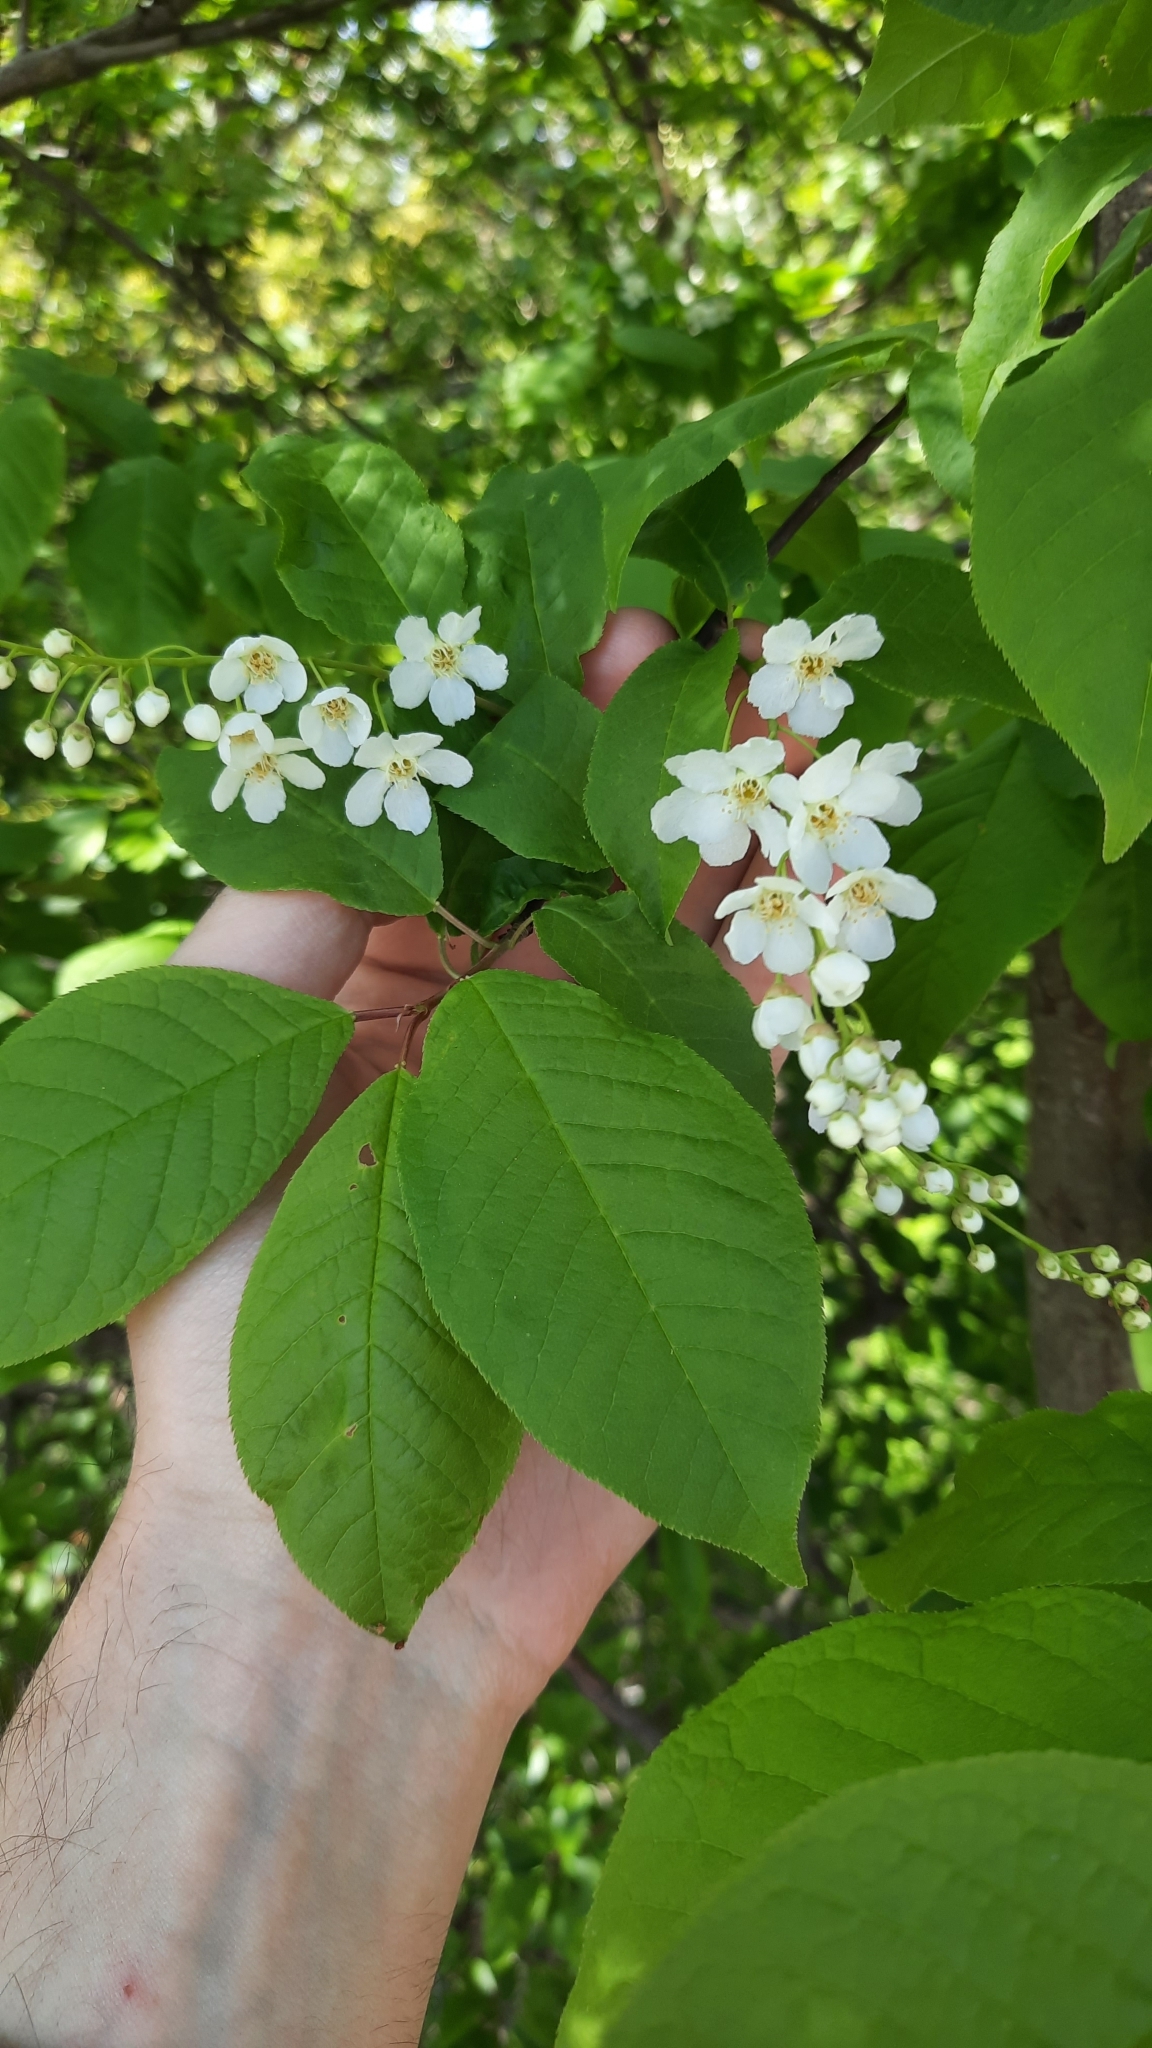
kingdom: Plantae
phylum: Tracheophyta
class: Magnoliopsida
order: Rosales
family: Rosaceae
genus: Prunus
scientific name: Prunus padus
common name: Bird cherry
